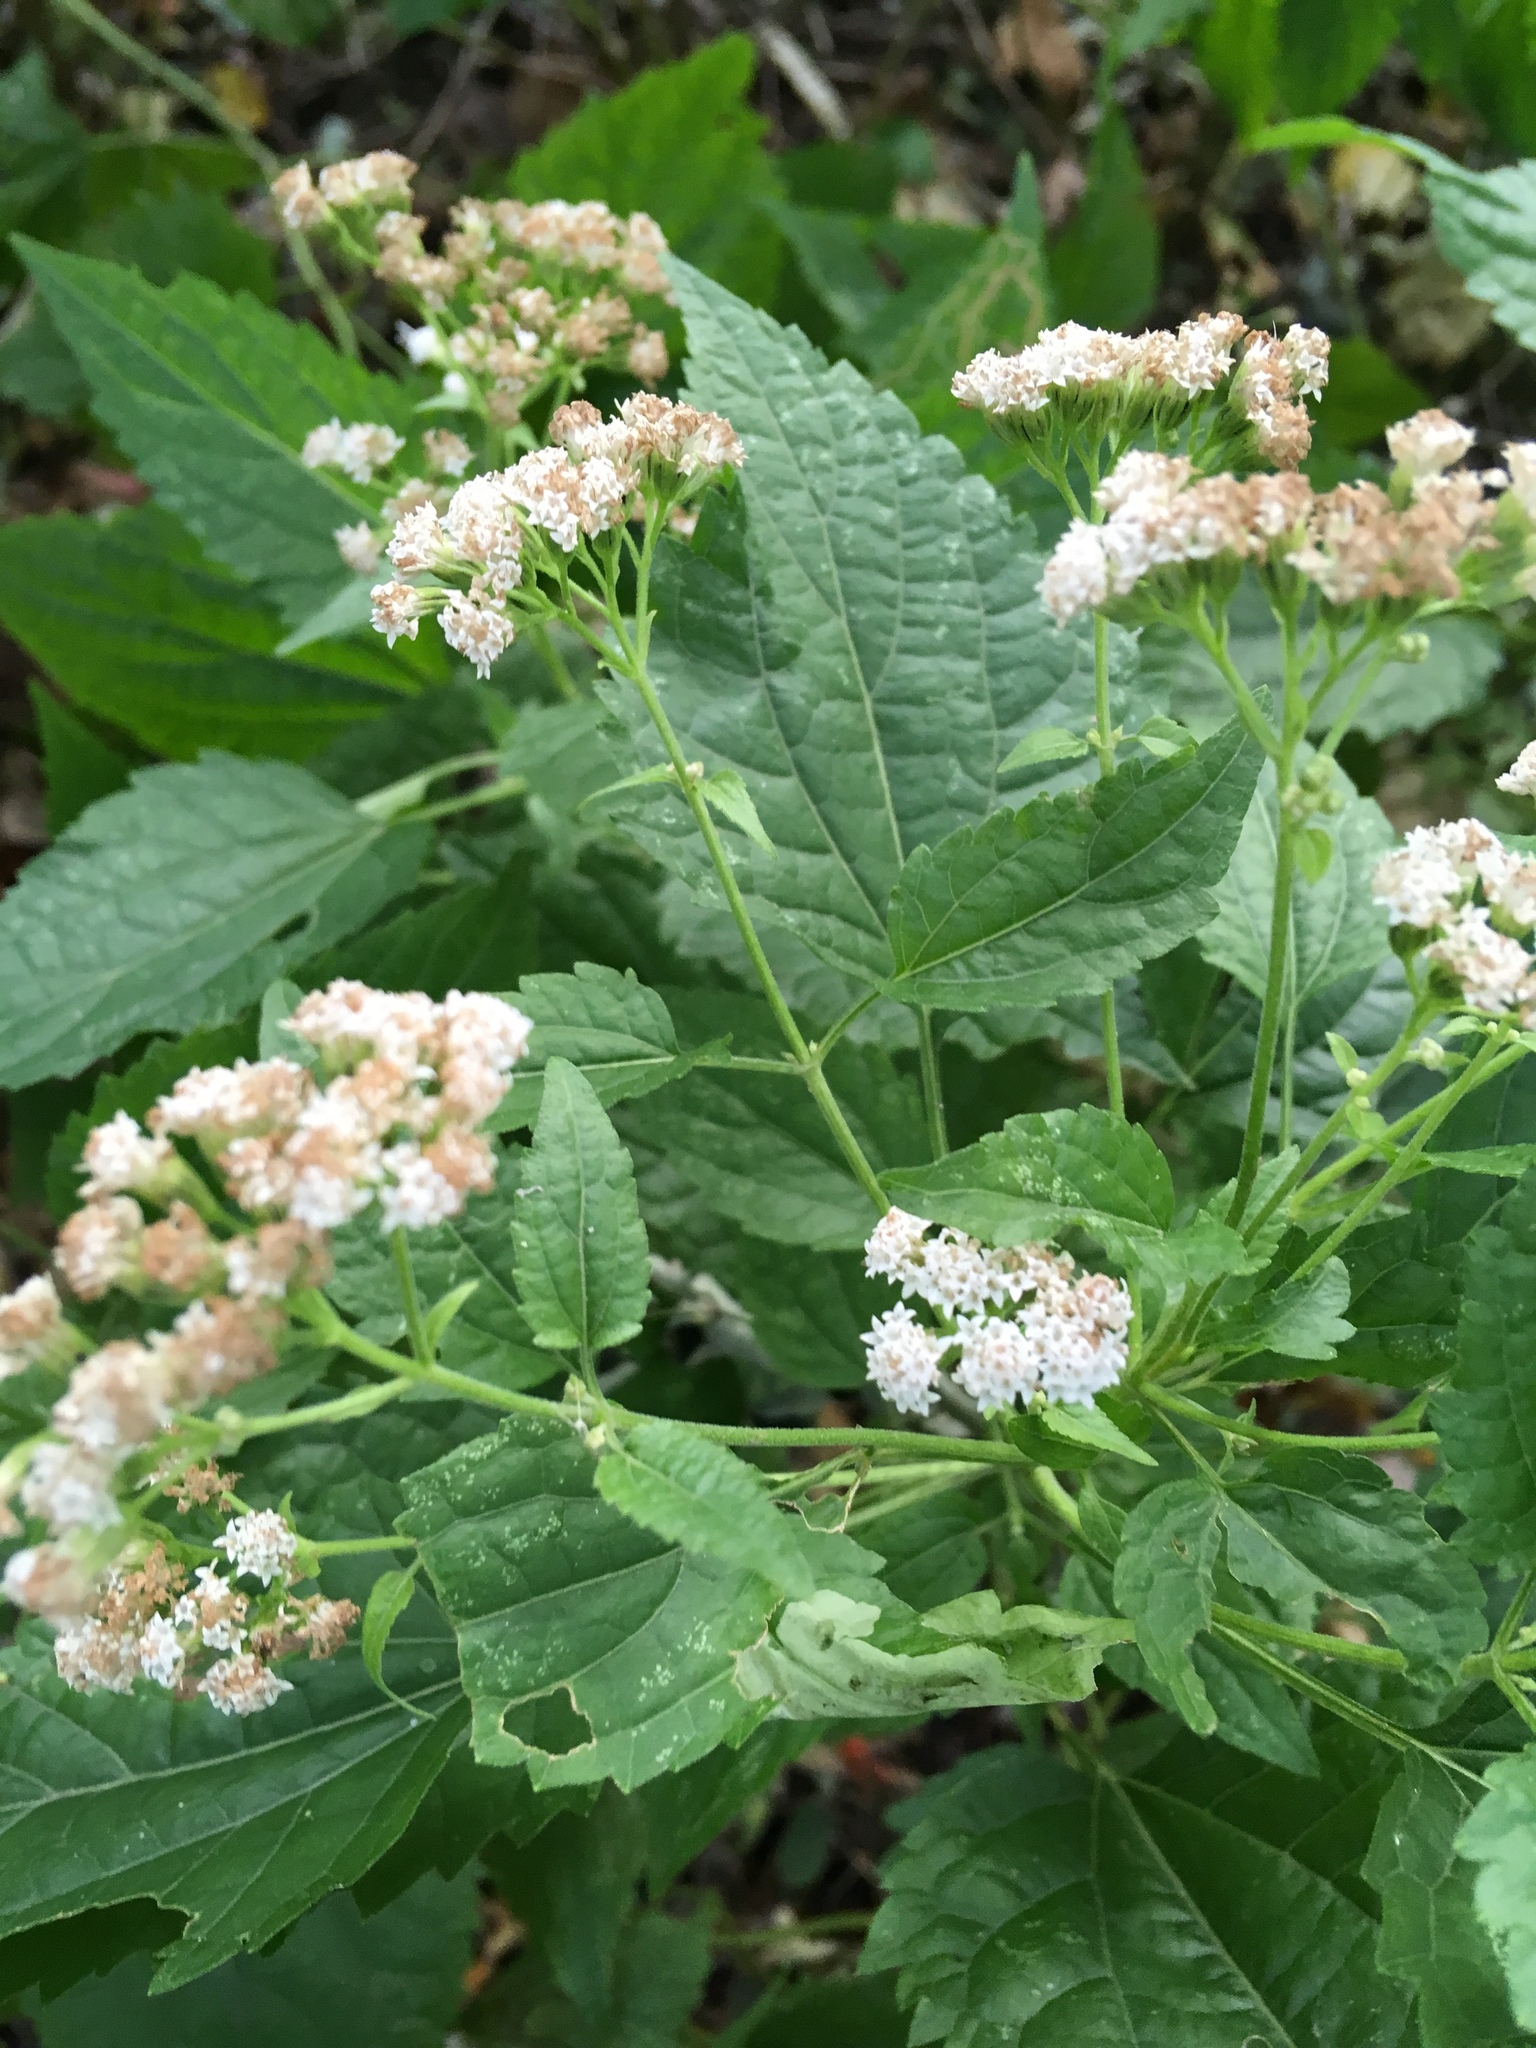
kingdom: Plantae
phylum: Tracheophyta
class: Magnoliopsida
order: Asterales
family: Asteraceae
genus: Ageratina
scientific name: Ageratina altissima
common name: White snakeroot
